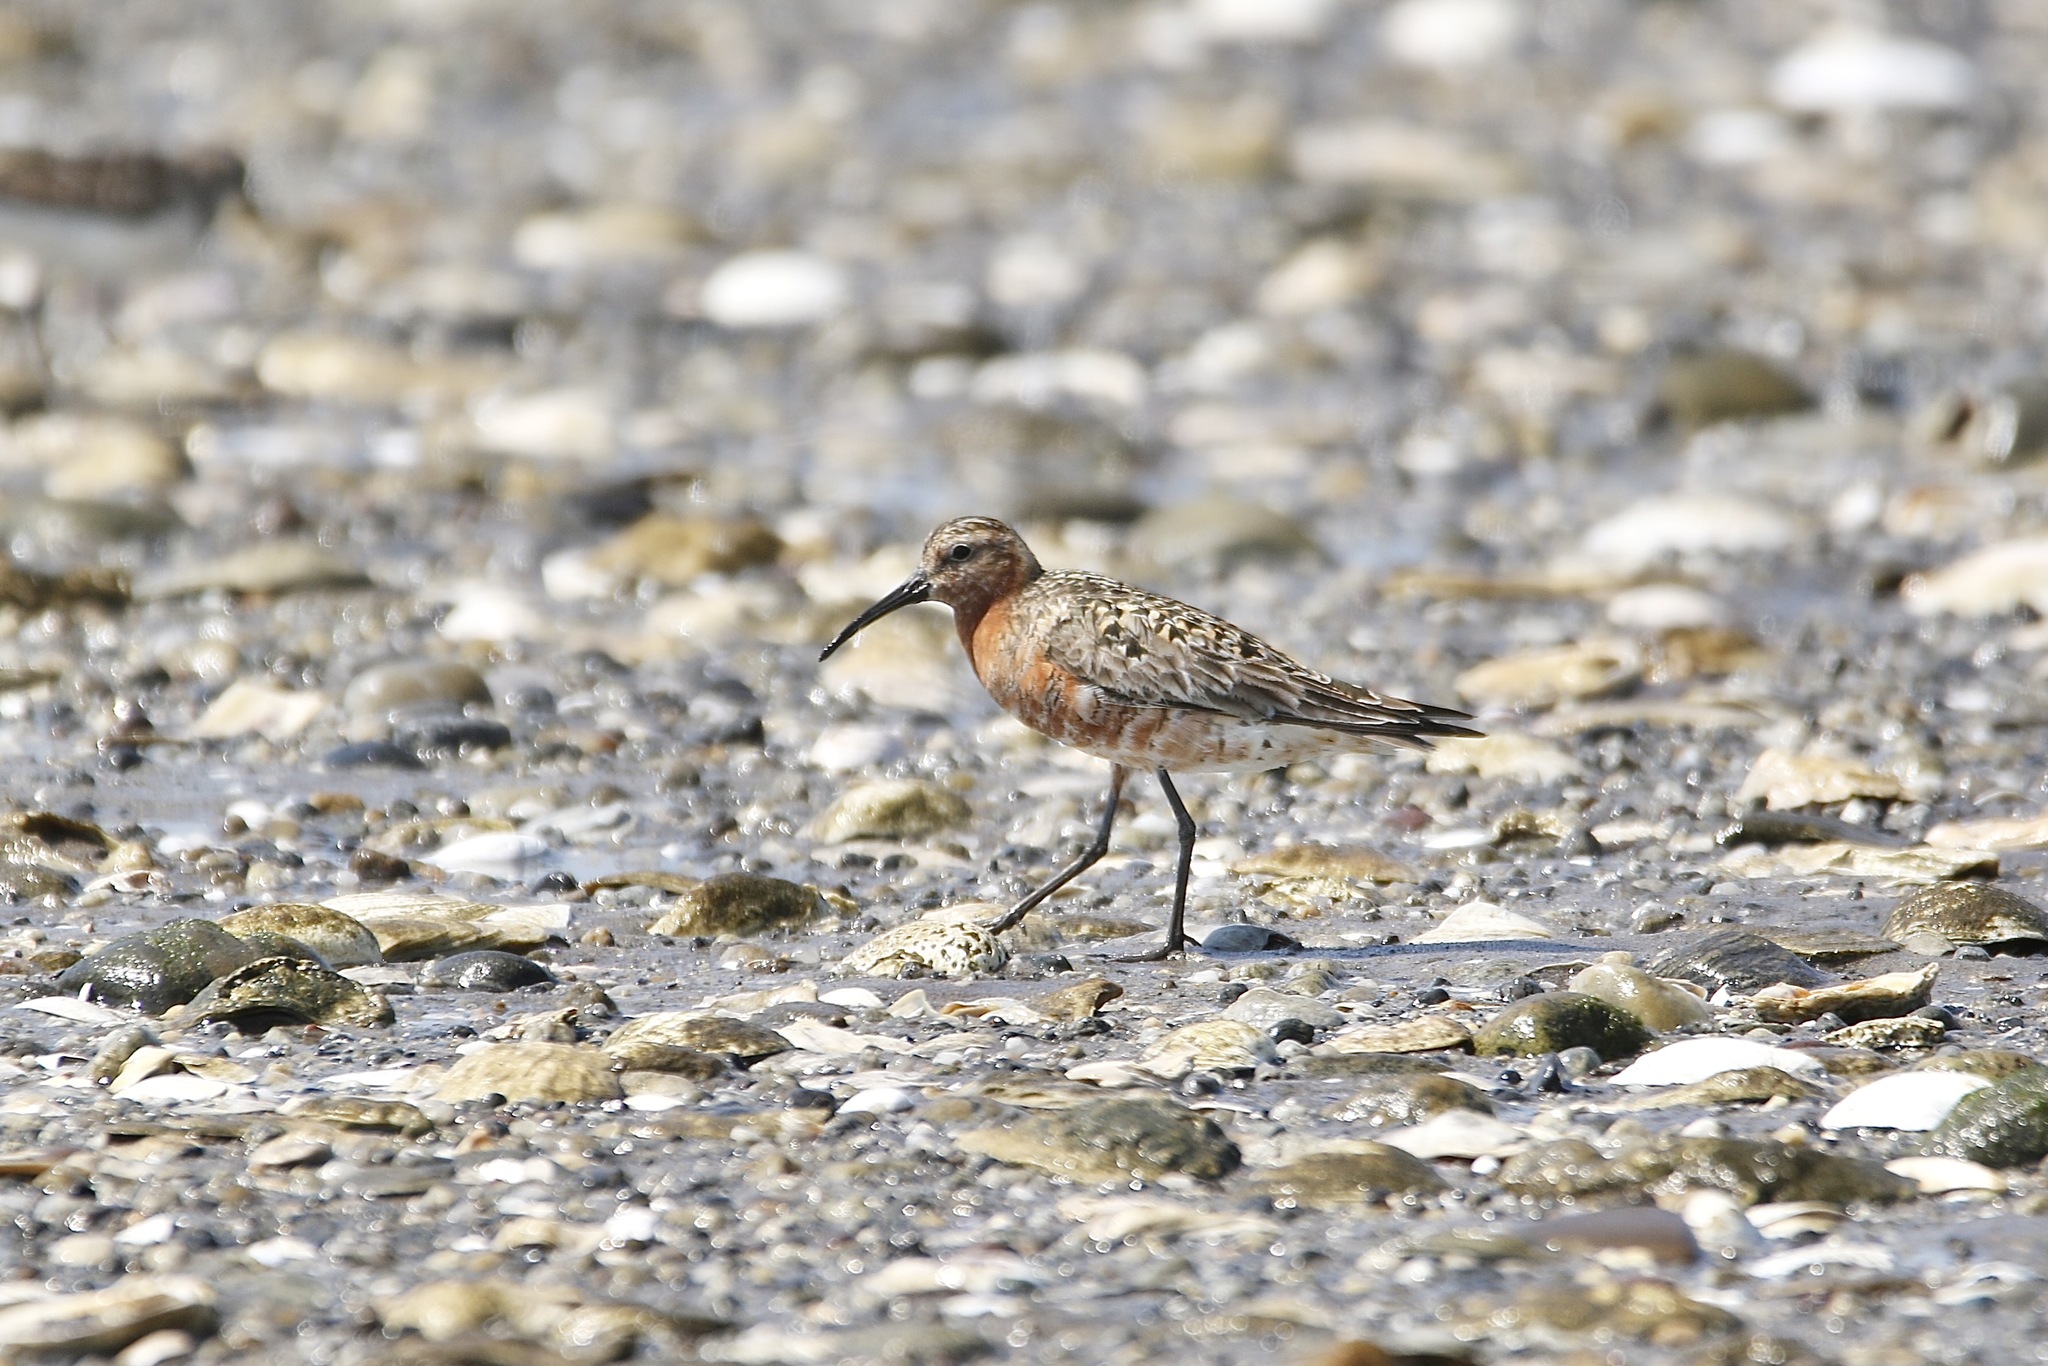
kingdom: Animalia
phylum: Chordata
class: Aves
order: Charadriiformes
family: Scolopacidae
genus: Calidris
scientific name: Calidris ferruginea
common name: Curlew sandpiper
